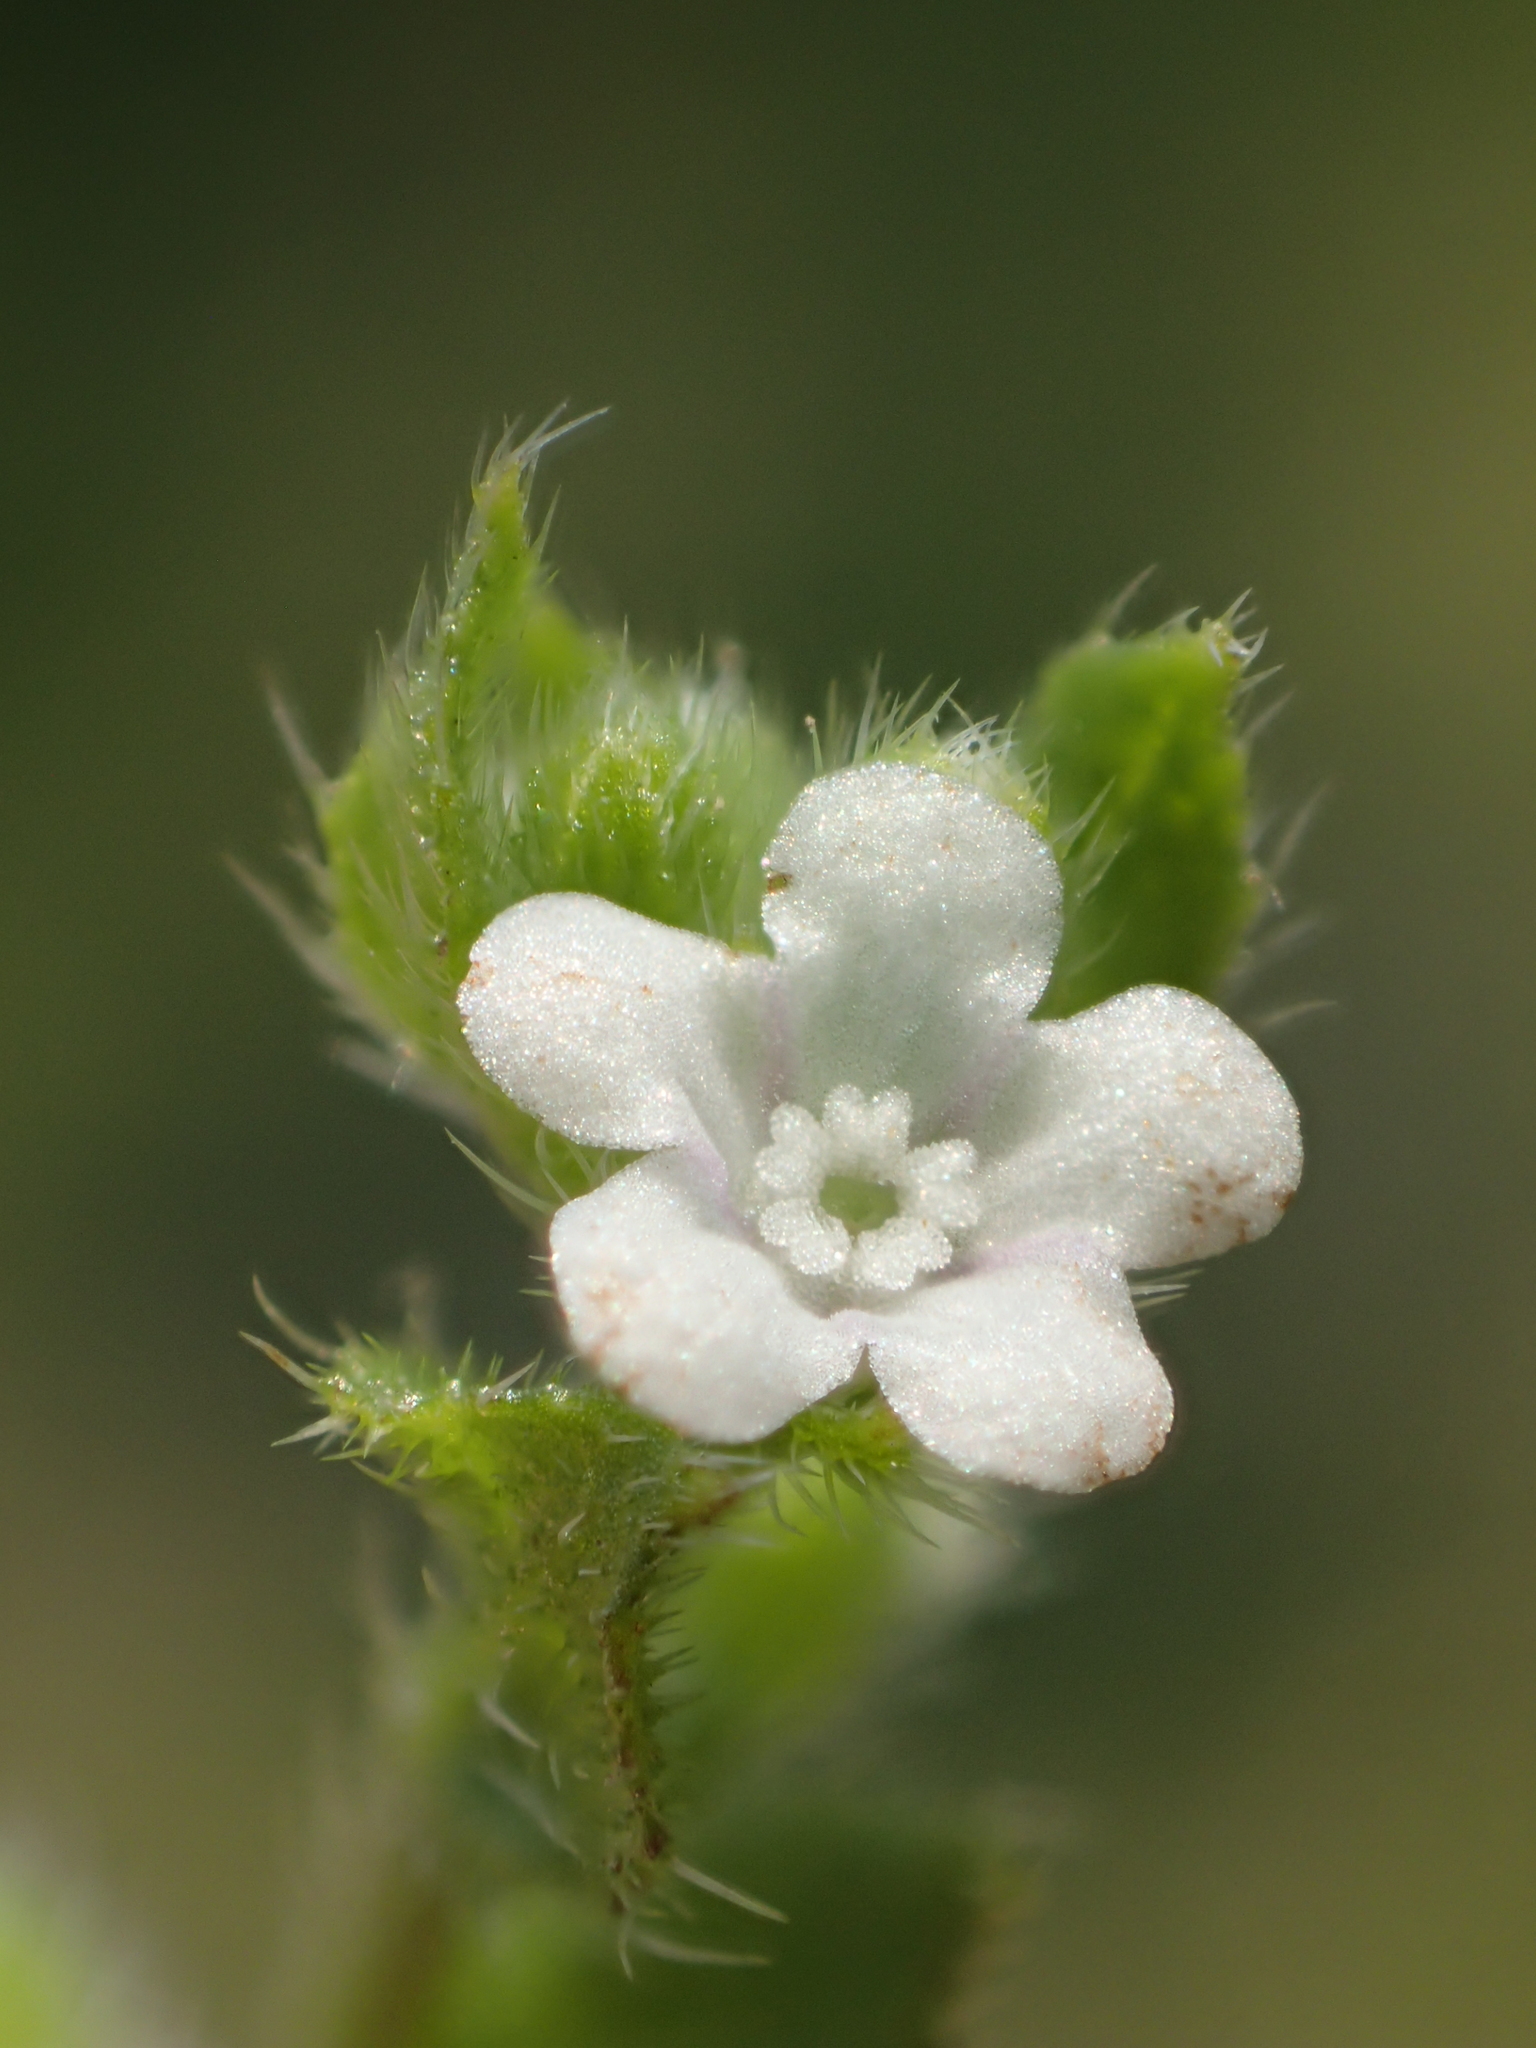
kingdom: Plantae
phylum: Tracheophyta
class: Magnoliopsida
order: Boraginales
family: Boraginaceae
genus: Bothriospermum
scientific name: Bothriospermum zeylanicum
